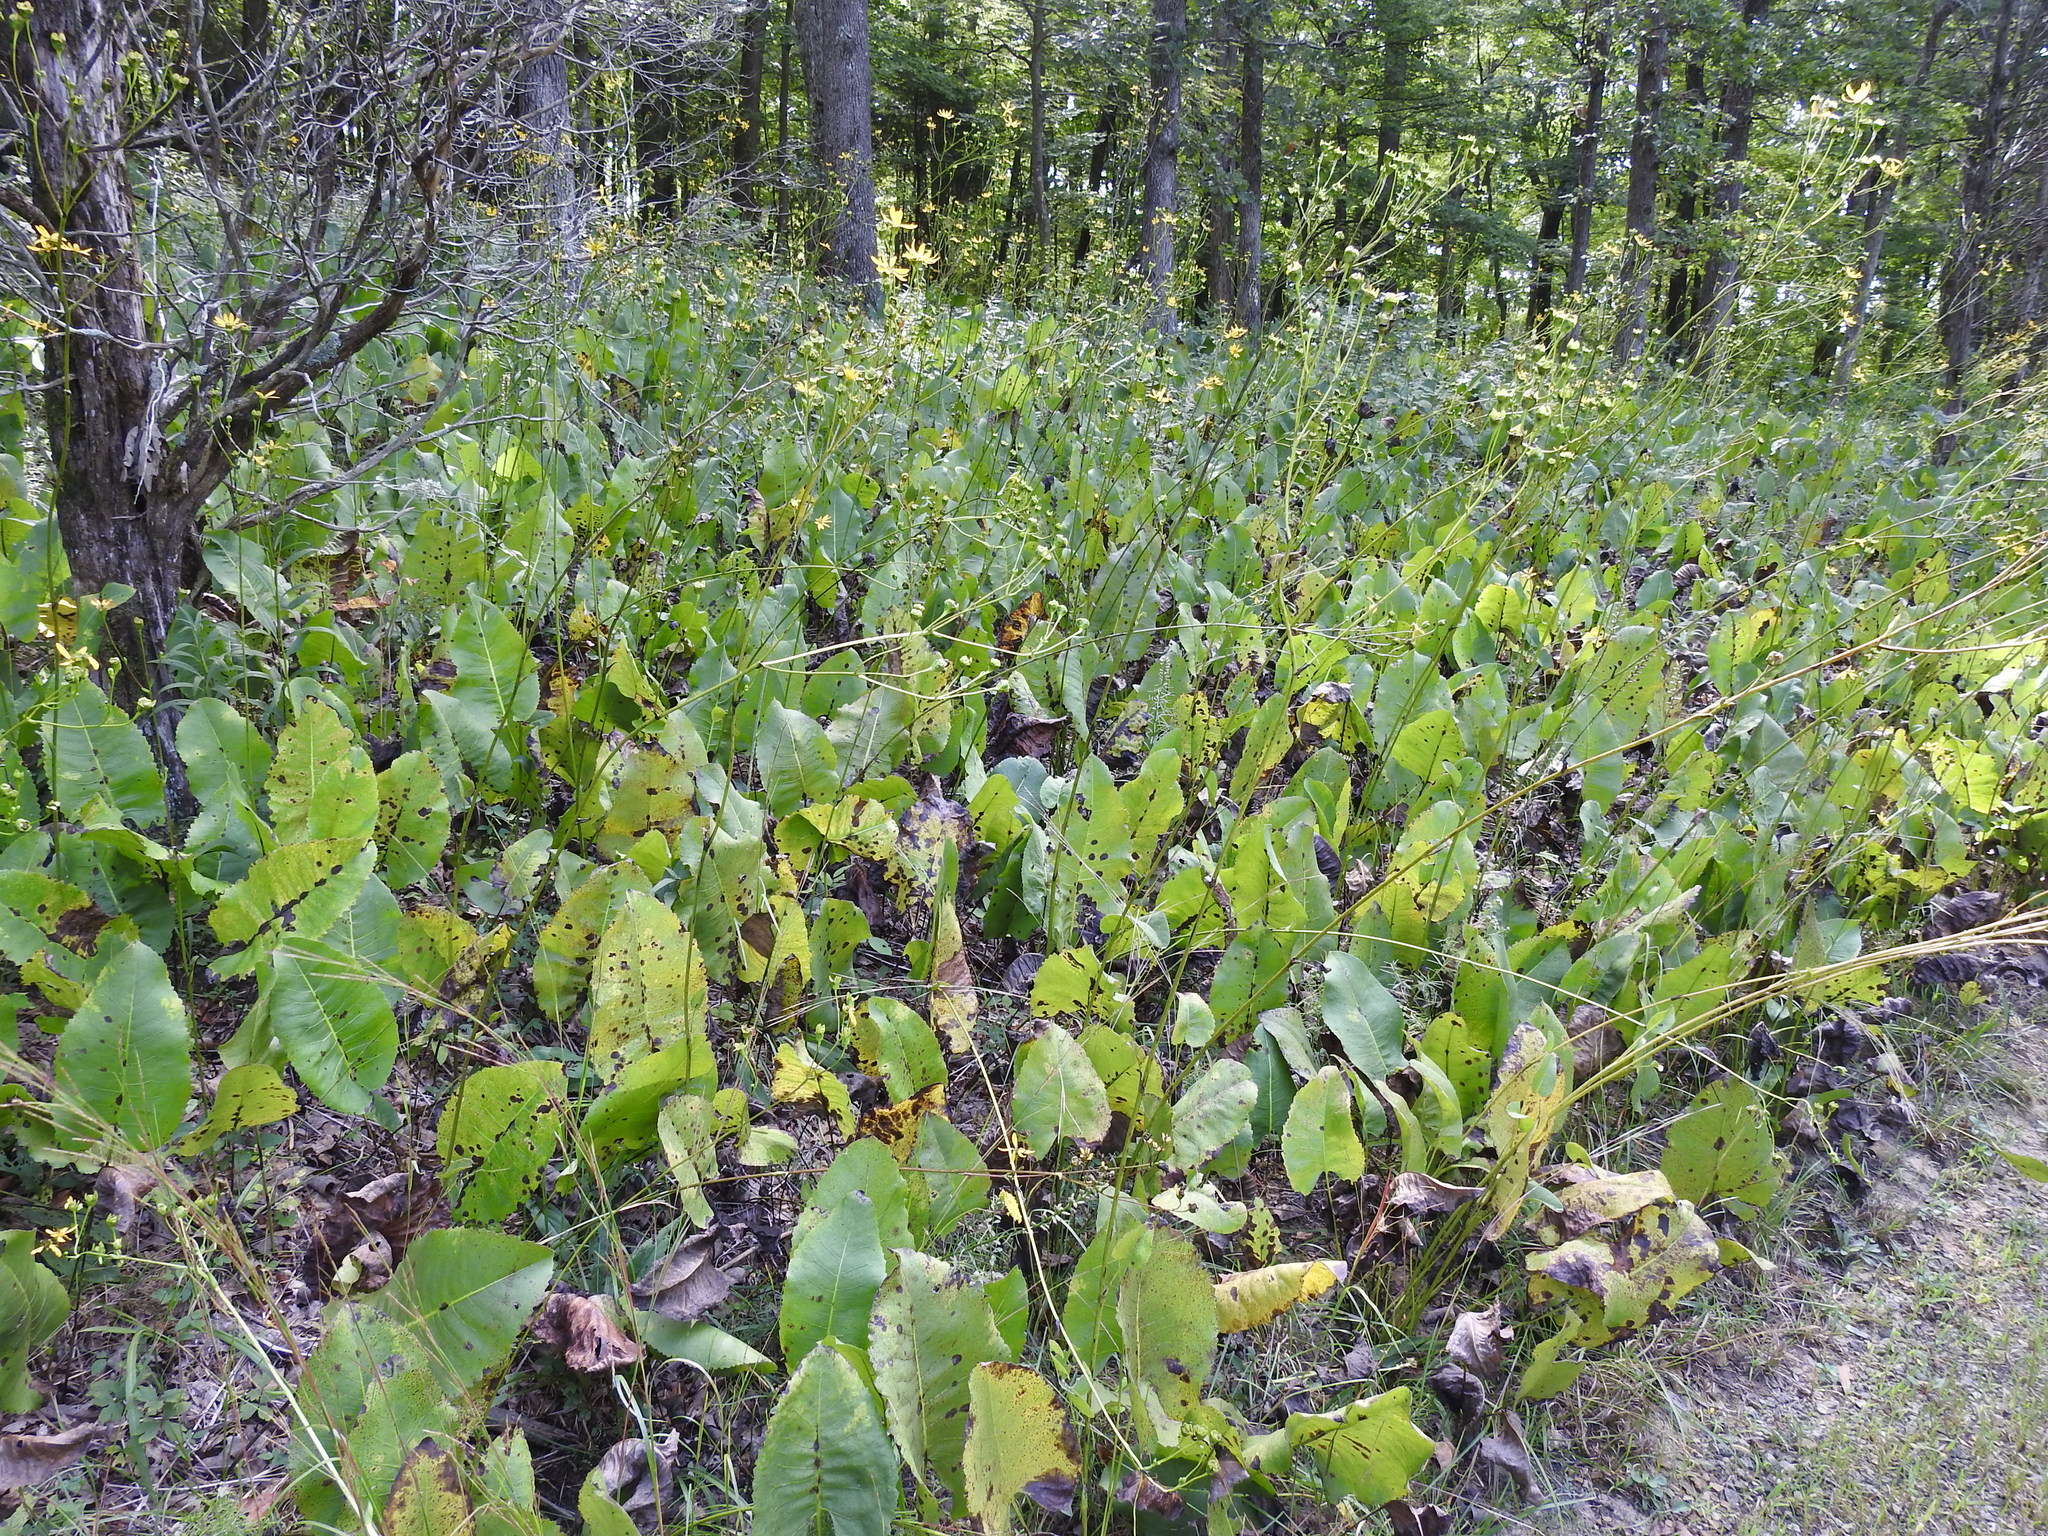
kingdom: Plantae
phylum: Tracheophyta
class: Magnoliopsida
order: Asterales
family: Asteraceae
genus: Silphium
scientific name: Silphium terebinthinaceum
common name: Basal-leaf rosinweed
